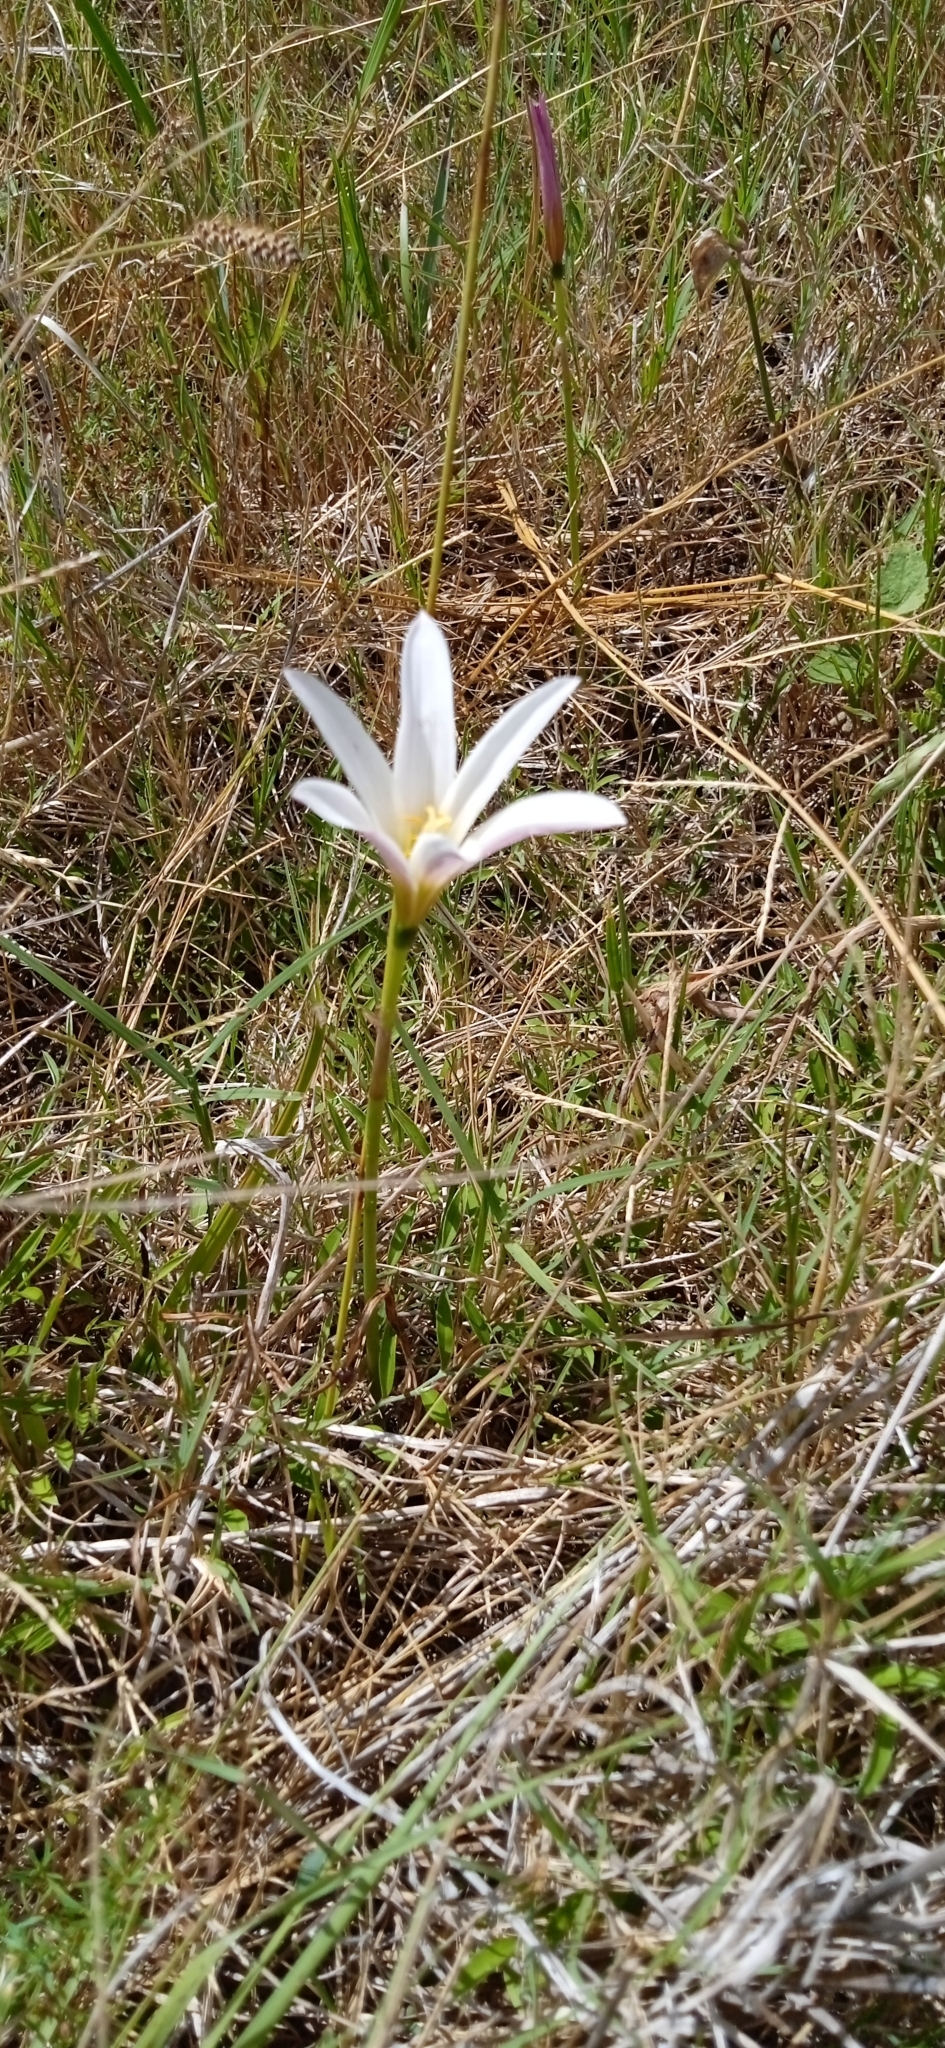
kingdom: Plantae
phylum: Tracheophyta
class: Liliopsida
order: Asparagales
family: Amaryllidaceae
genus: Zephyranthes
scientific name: Zephyranthes mesochloa
